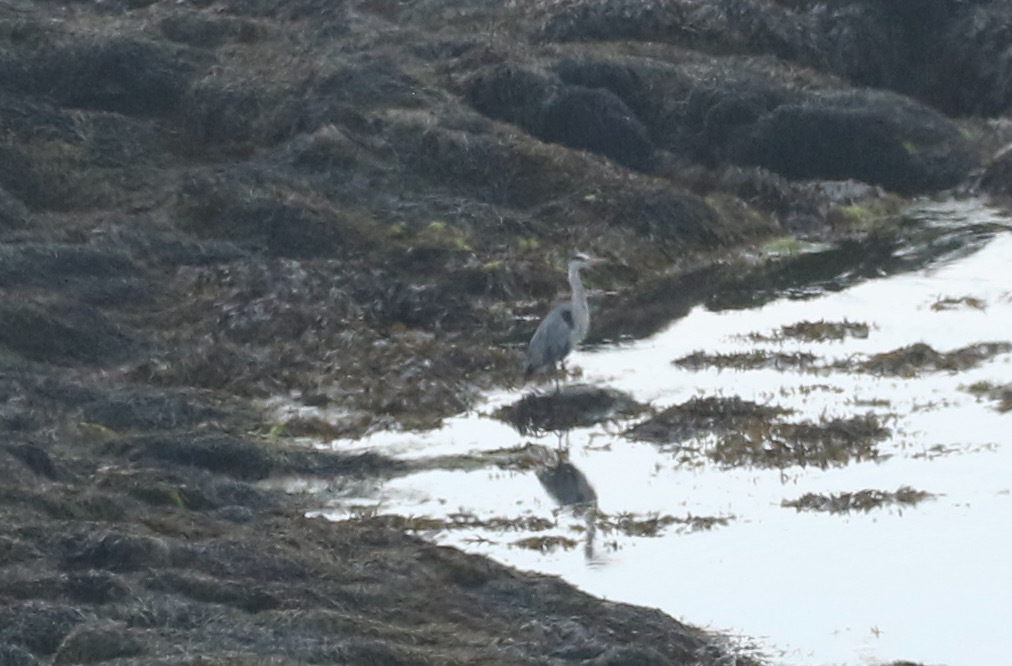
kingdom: Animalia
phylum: Chordata
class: Aves
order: Pelecaniformes
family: Ardeidae
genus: Ardea
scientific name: Ardea cinerea
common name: Grey heron
